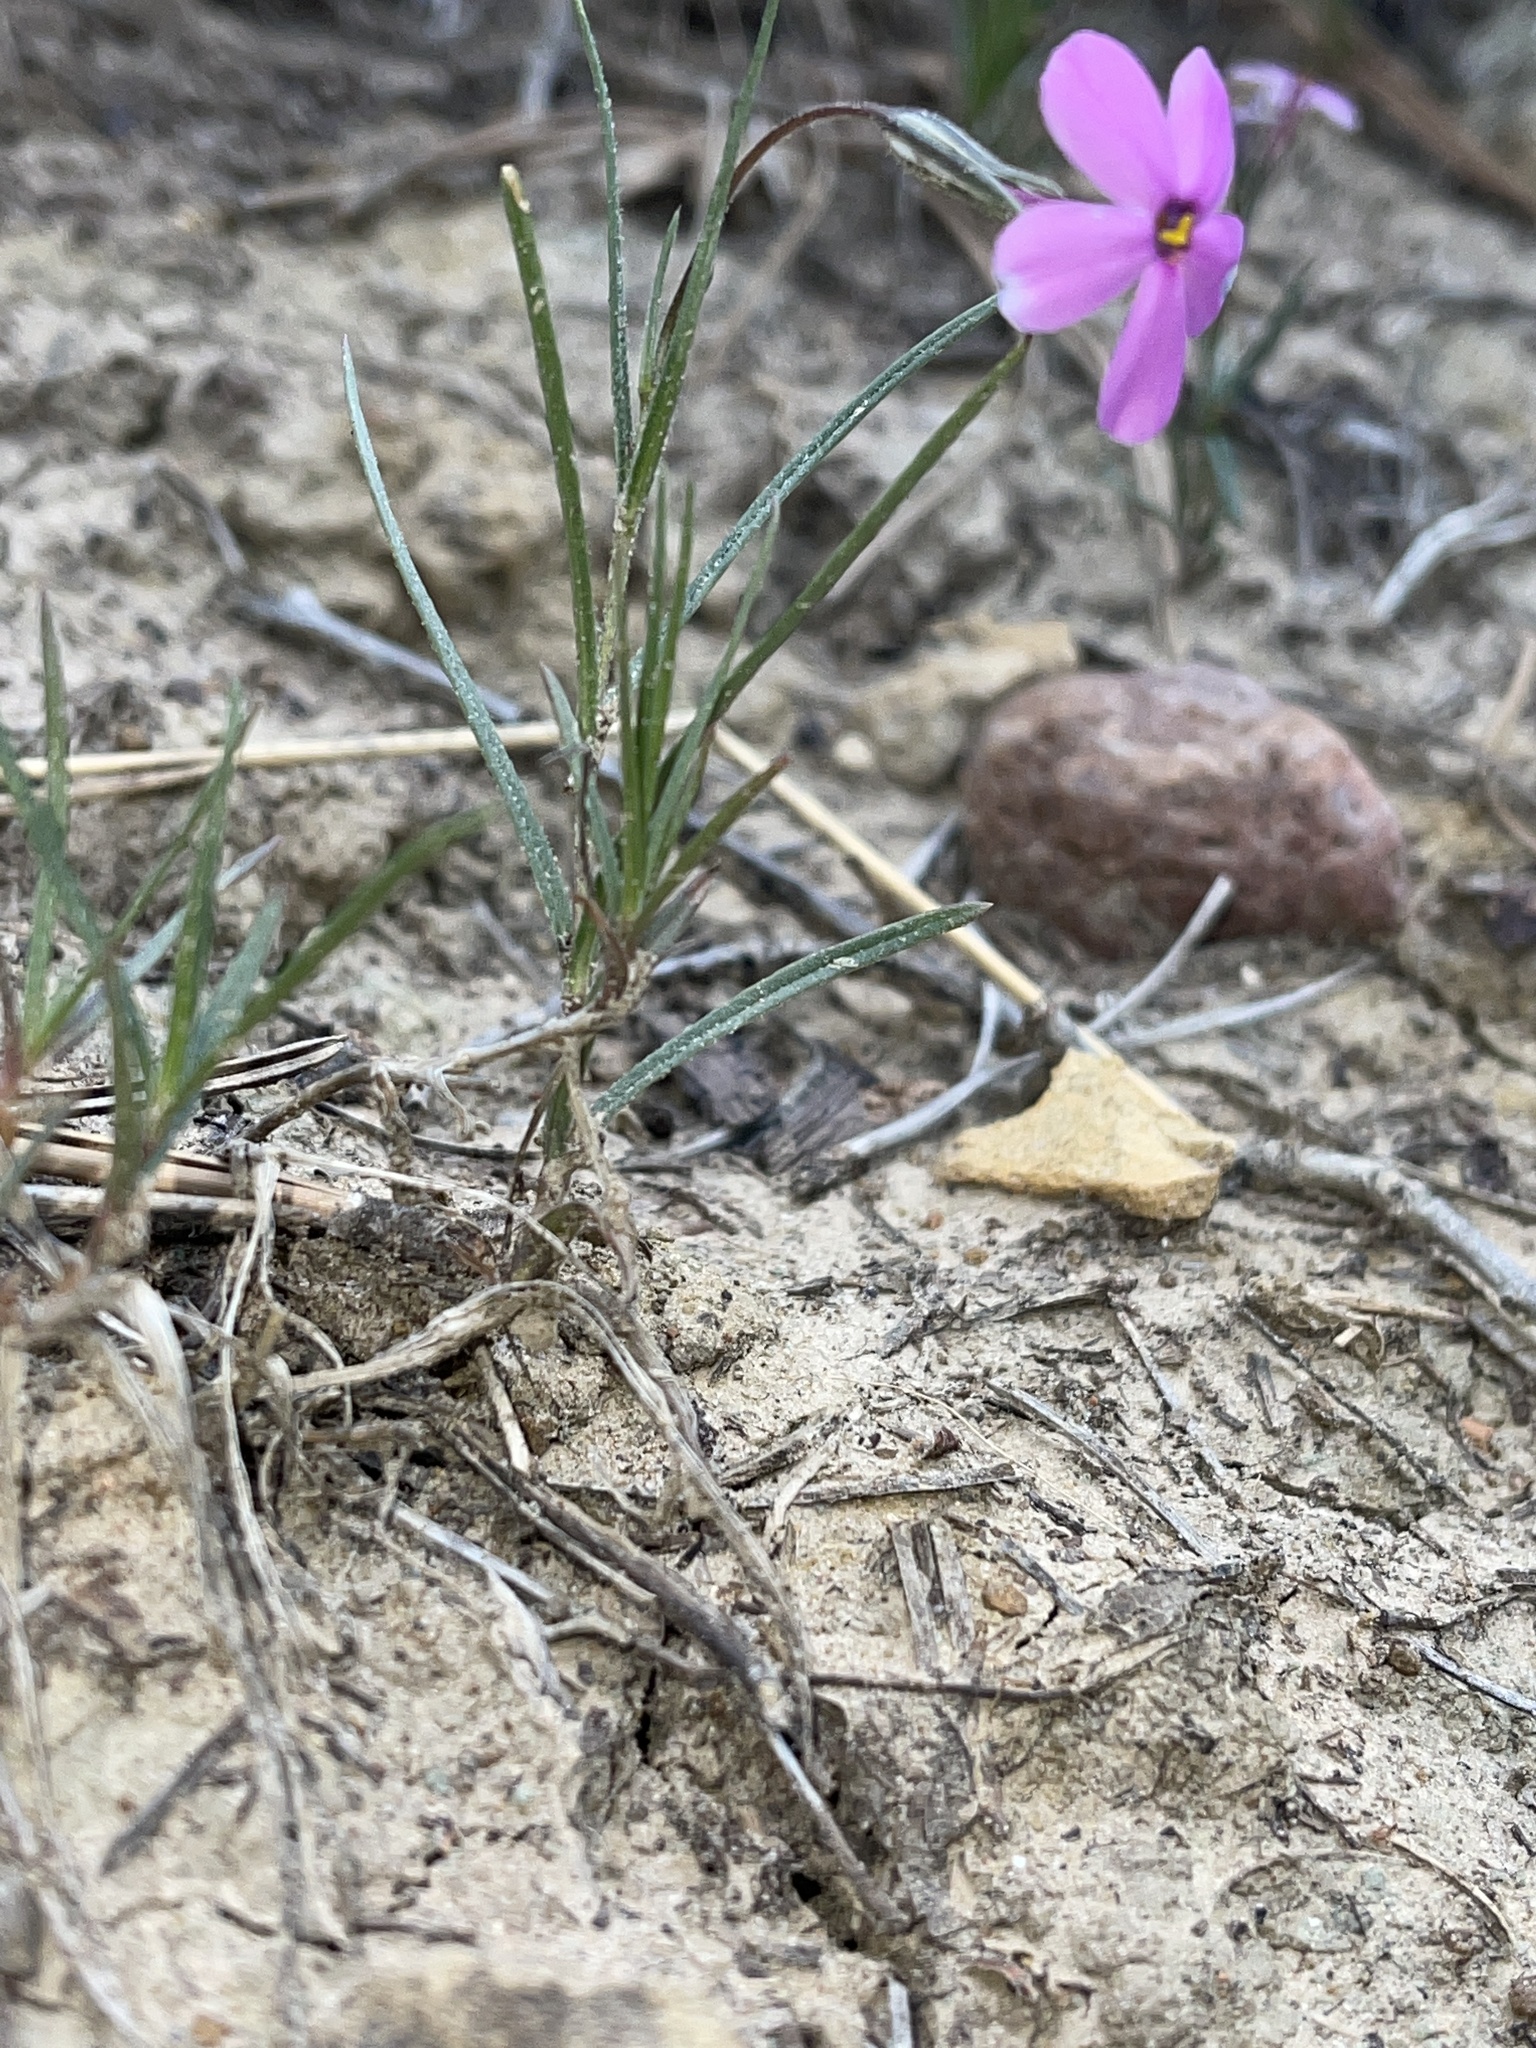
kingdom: Plantae
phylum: Tracheophyta
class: Magnoliopsida
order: Ericales
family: Polemoniaceae
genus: Phlox
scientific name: Phlox longifolia
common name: Longleaf phlox
